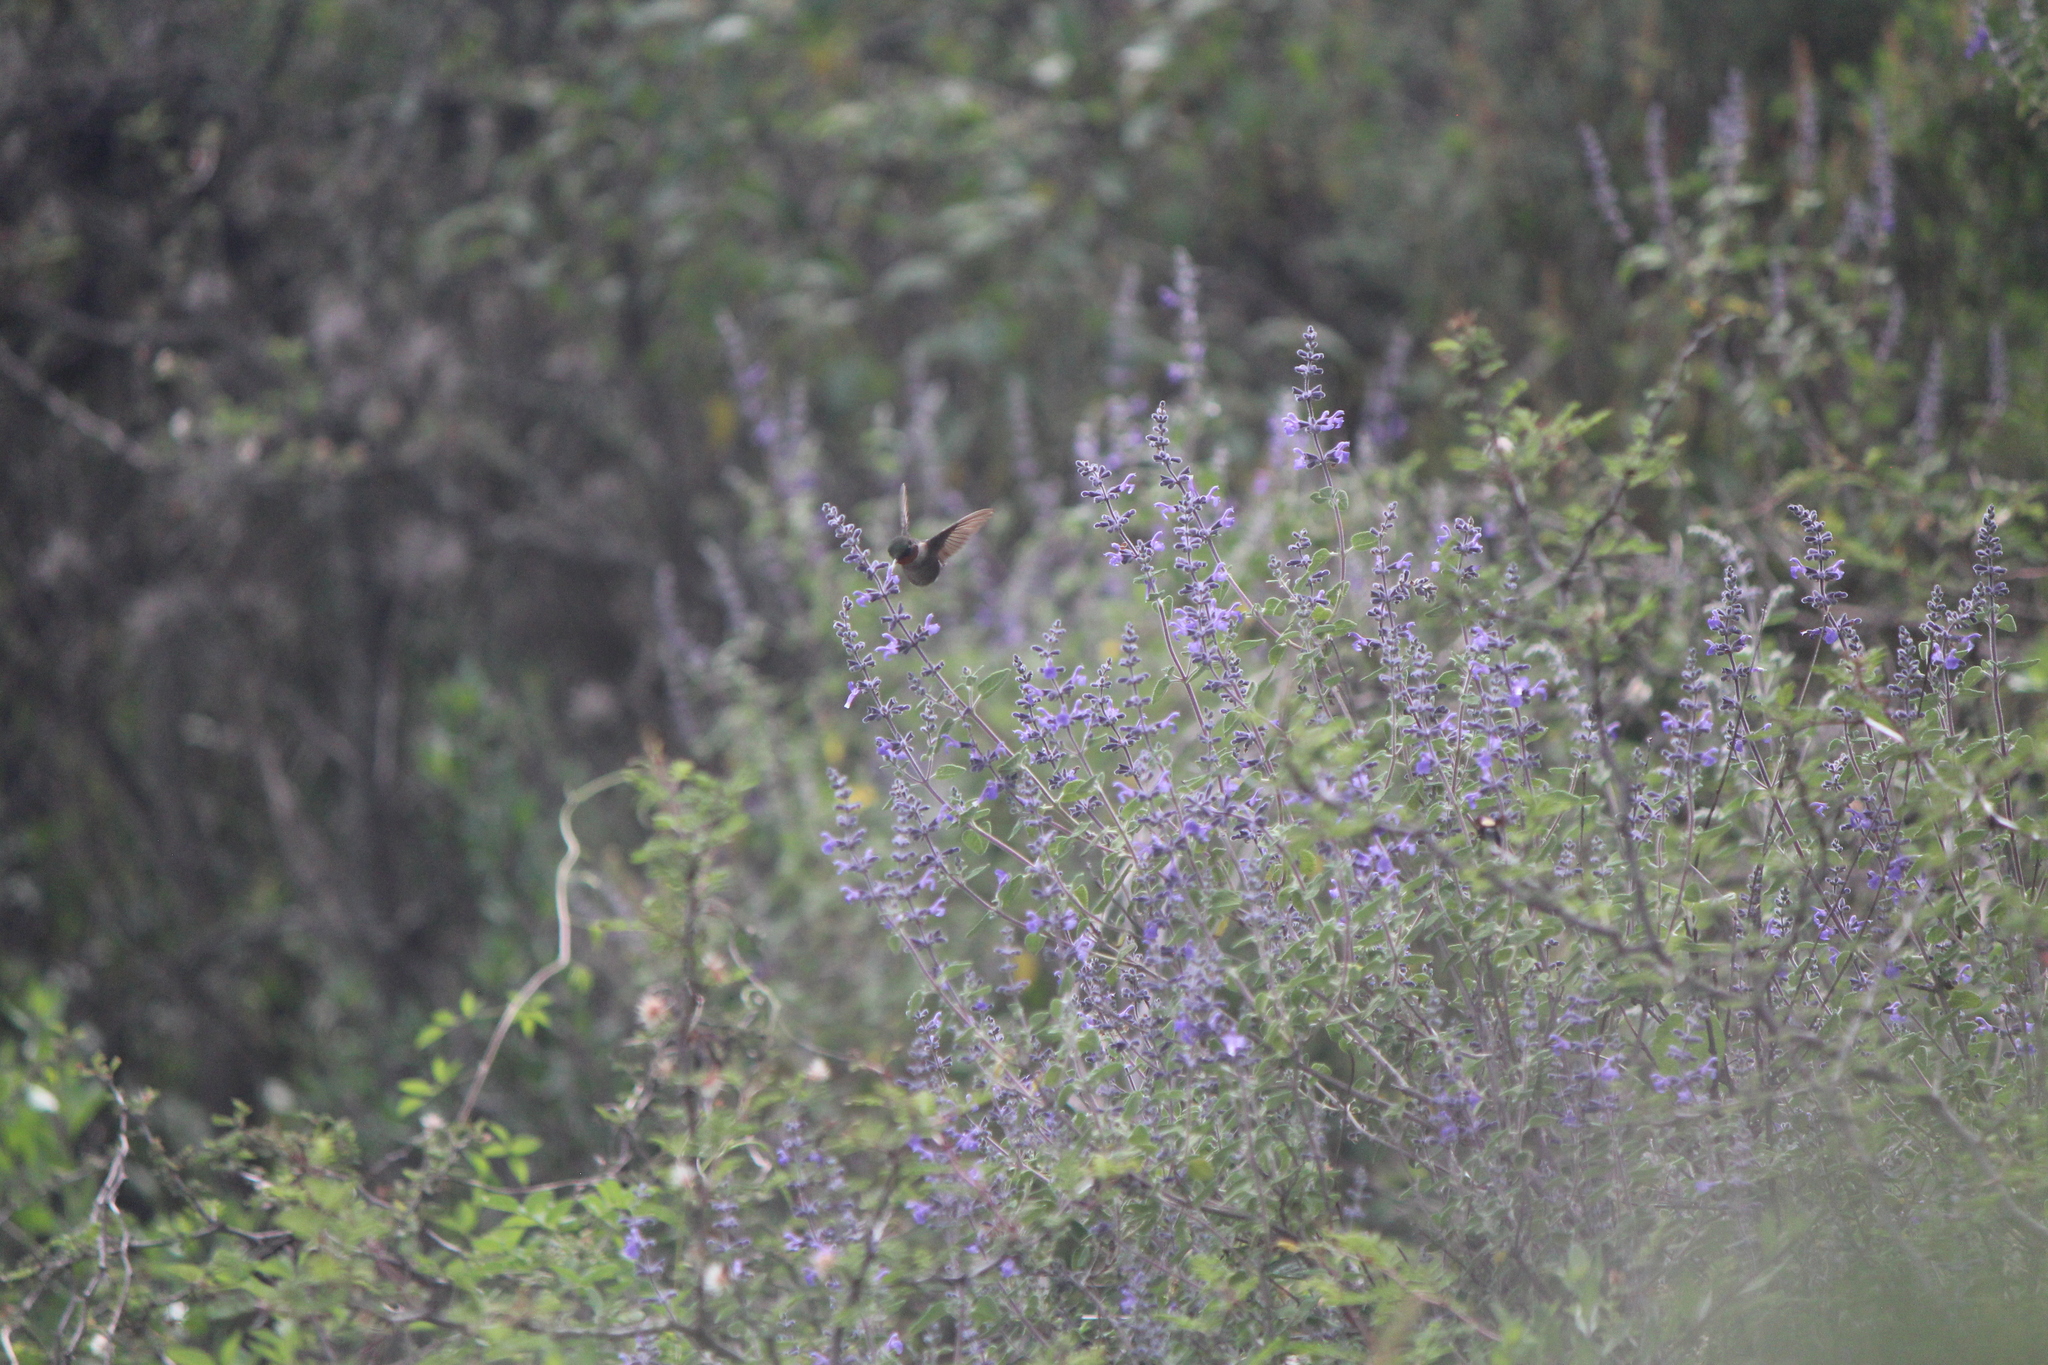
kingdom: Animalia
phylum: Chordata
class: Aves
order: Apodiformes
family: Trochilidae
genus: Archilochus
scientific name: Archilochus colubris
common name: Ruby-throated hummingbird
